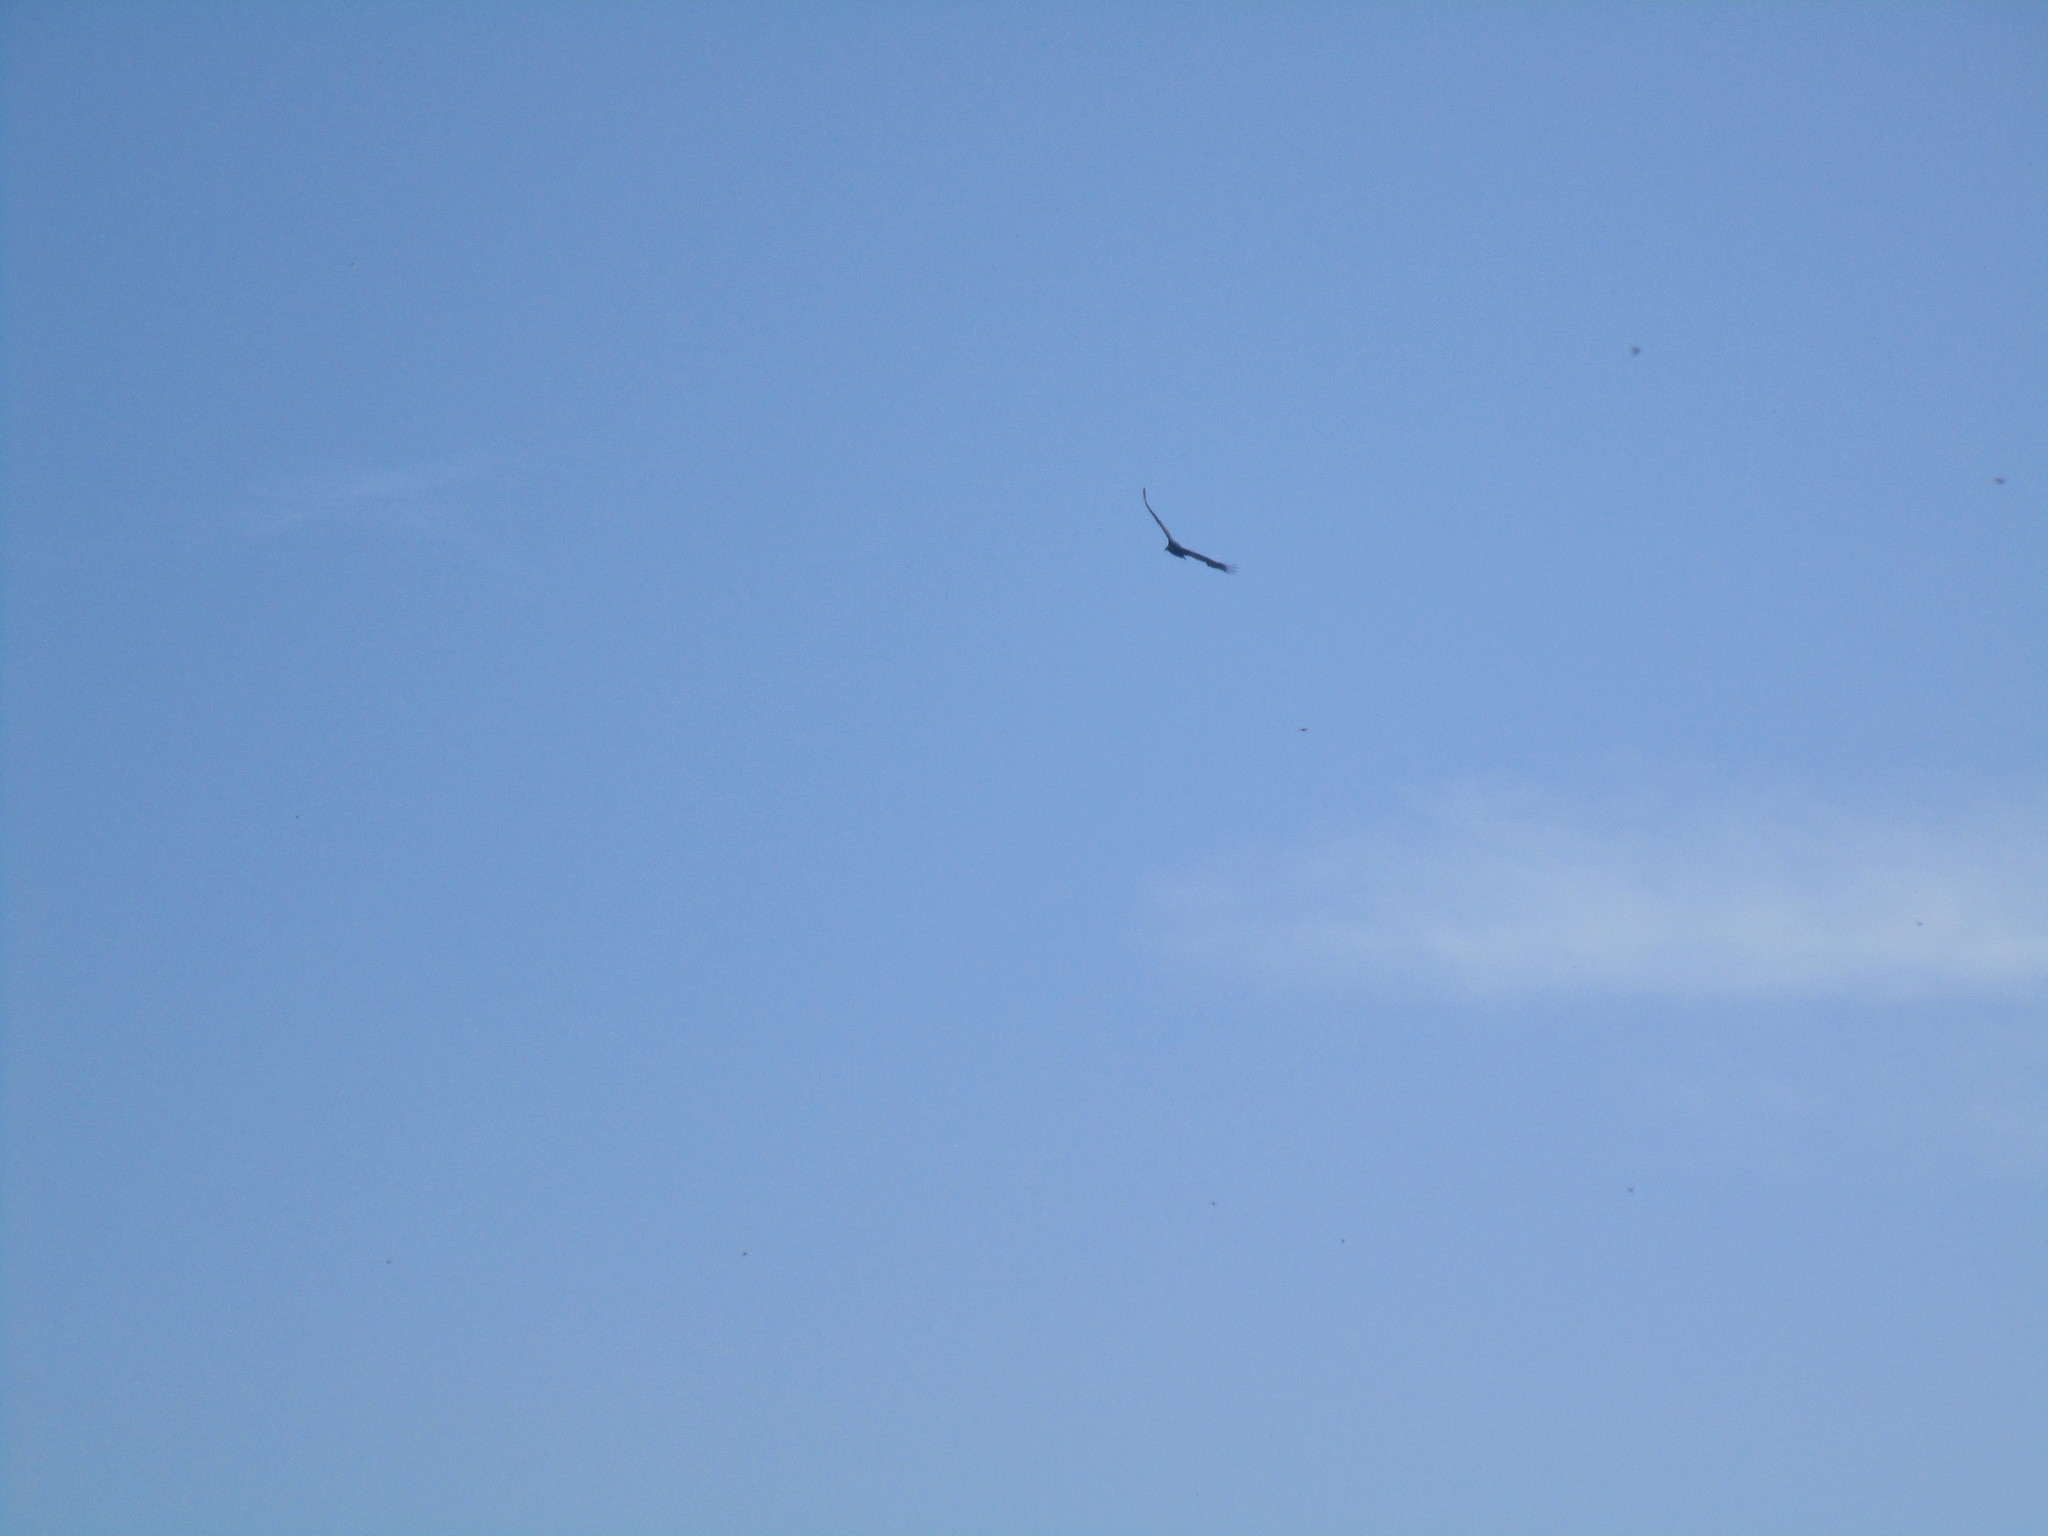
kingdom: Animalia
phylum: Chordata
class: Aves
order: Accipitriformes
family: Cathartidae
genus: Cathartes
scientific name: Cathartes aura
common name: Turkey vulture
